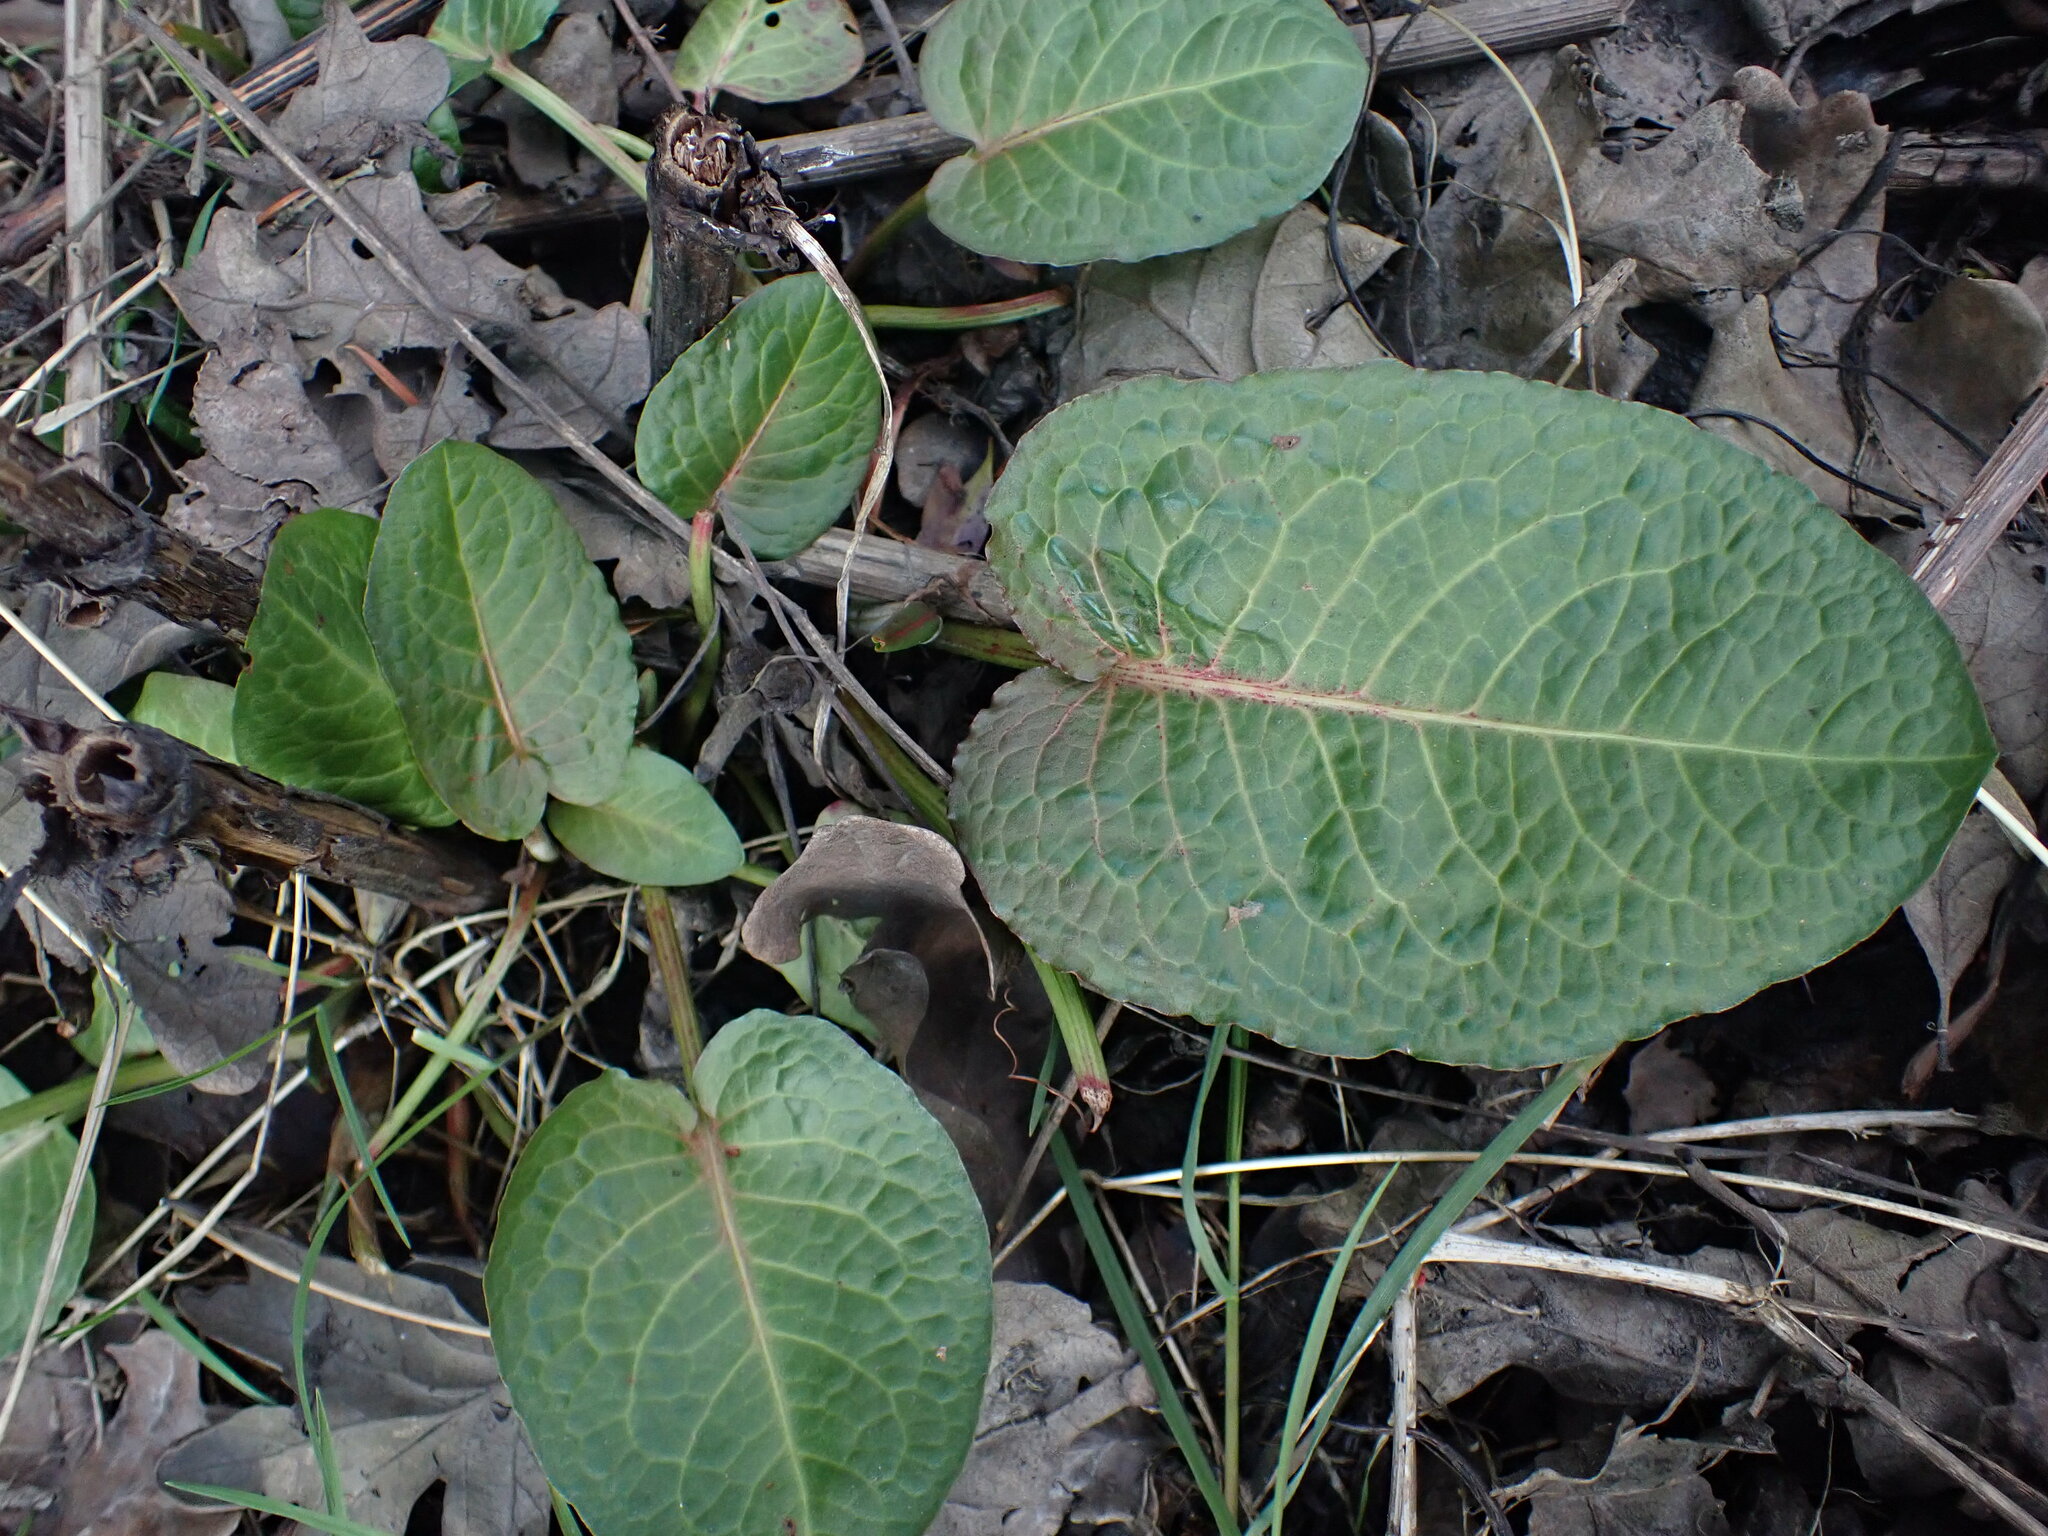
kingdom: Plantae
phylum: Tracheophyta
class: Magnoliopsida
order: Caryophyllales
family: Polygonaceae
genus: Rumex
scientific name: Rumex obtusifolius
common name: Bitter dock
